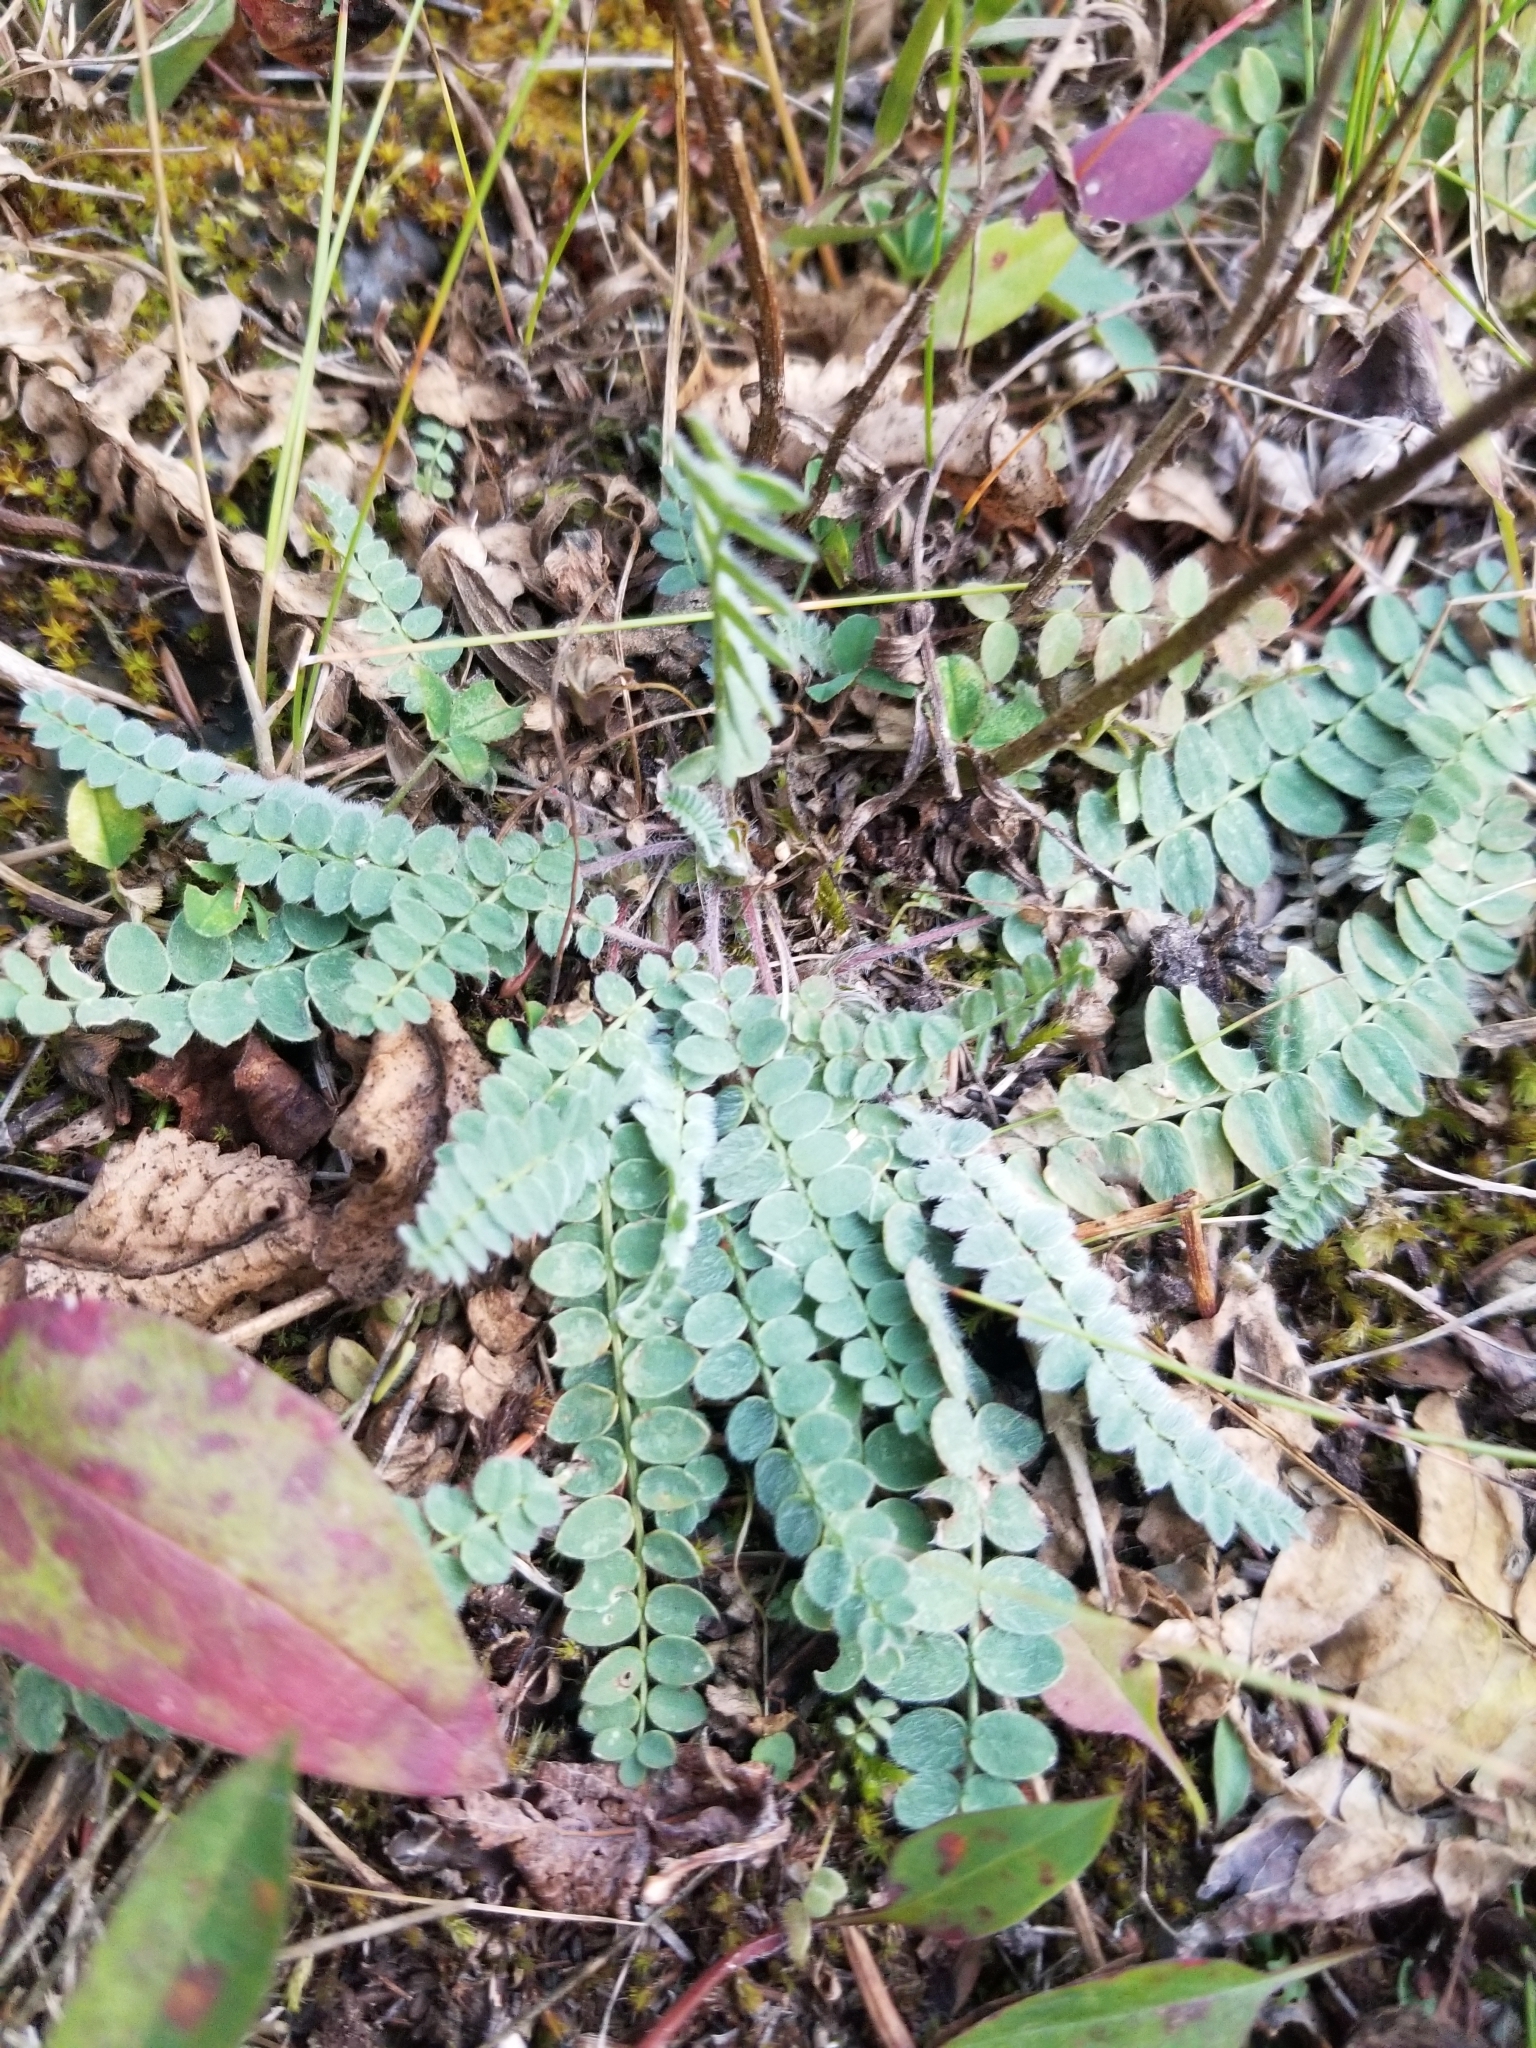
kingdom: Plantae
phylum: Tracheophyta
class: Magnoliopsida
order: Fabales
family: Fabaceae
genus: Oxytropis
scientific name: Oxytropis deflexa
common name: Stemmed oxytrope
